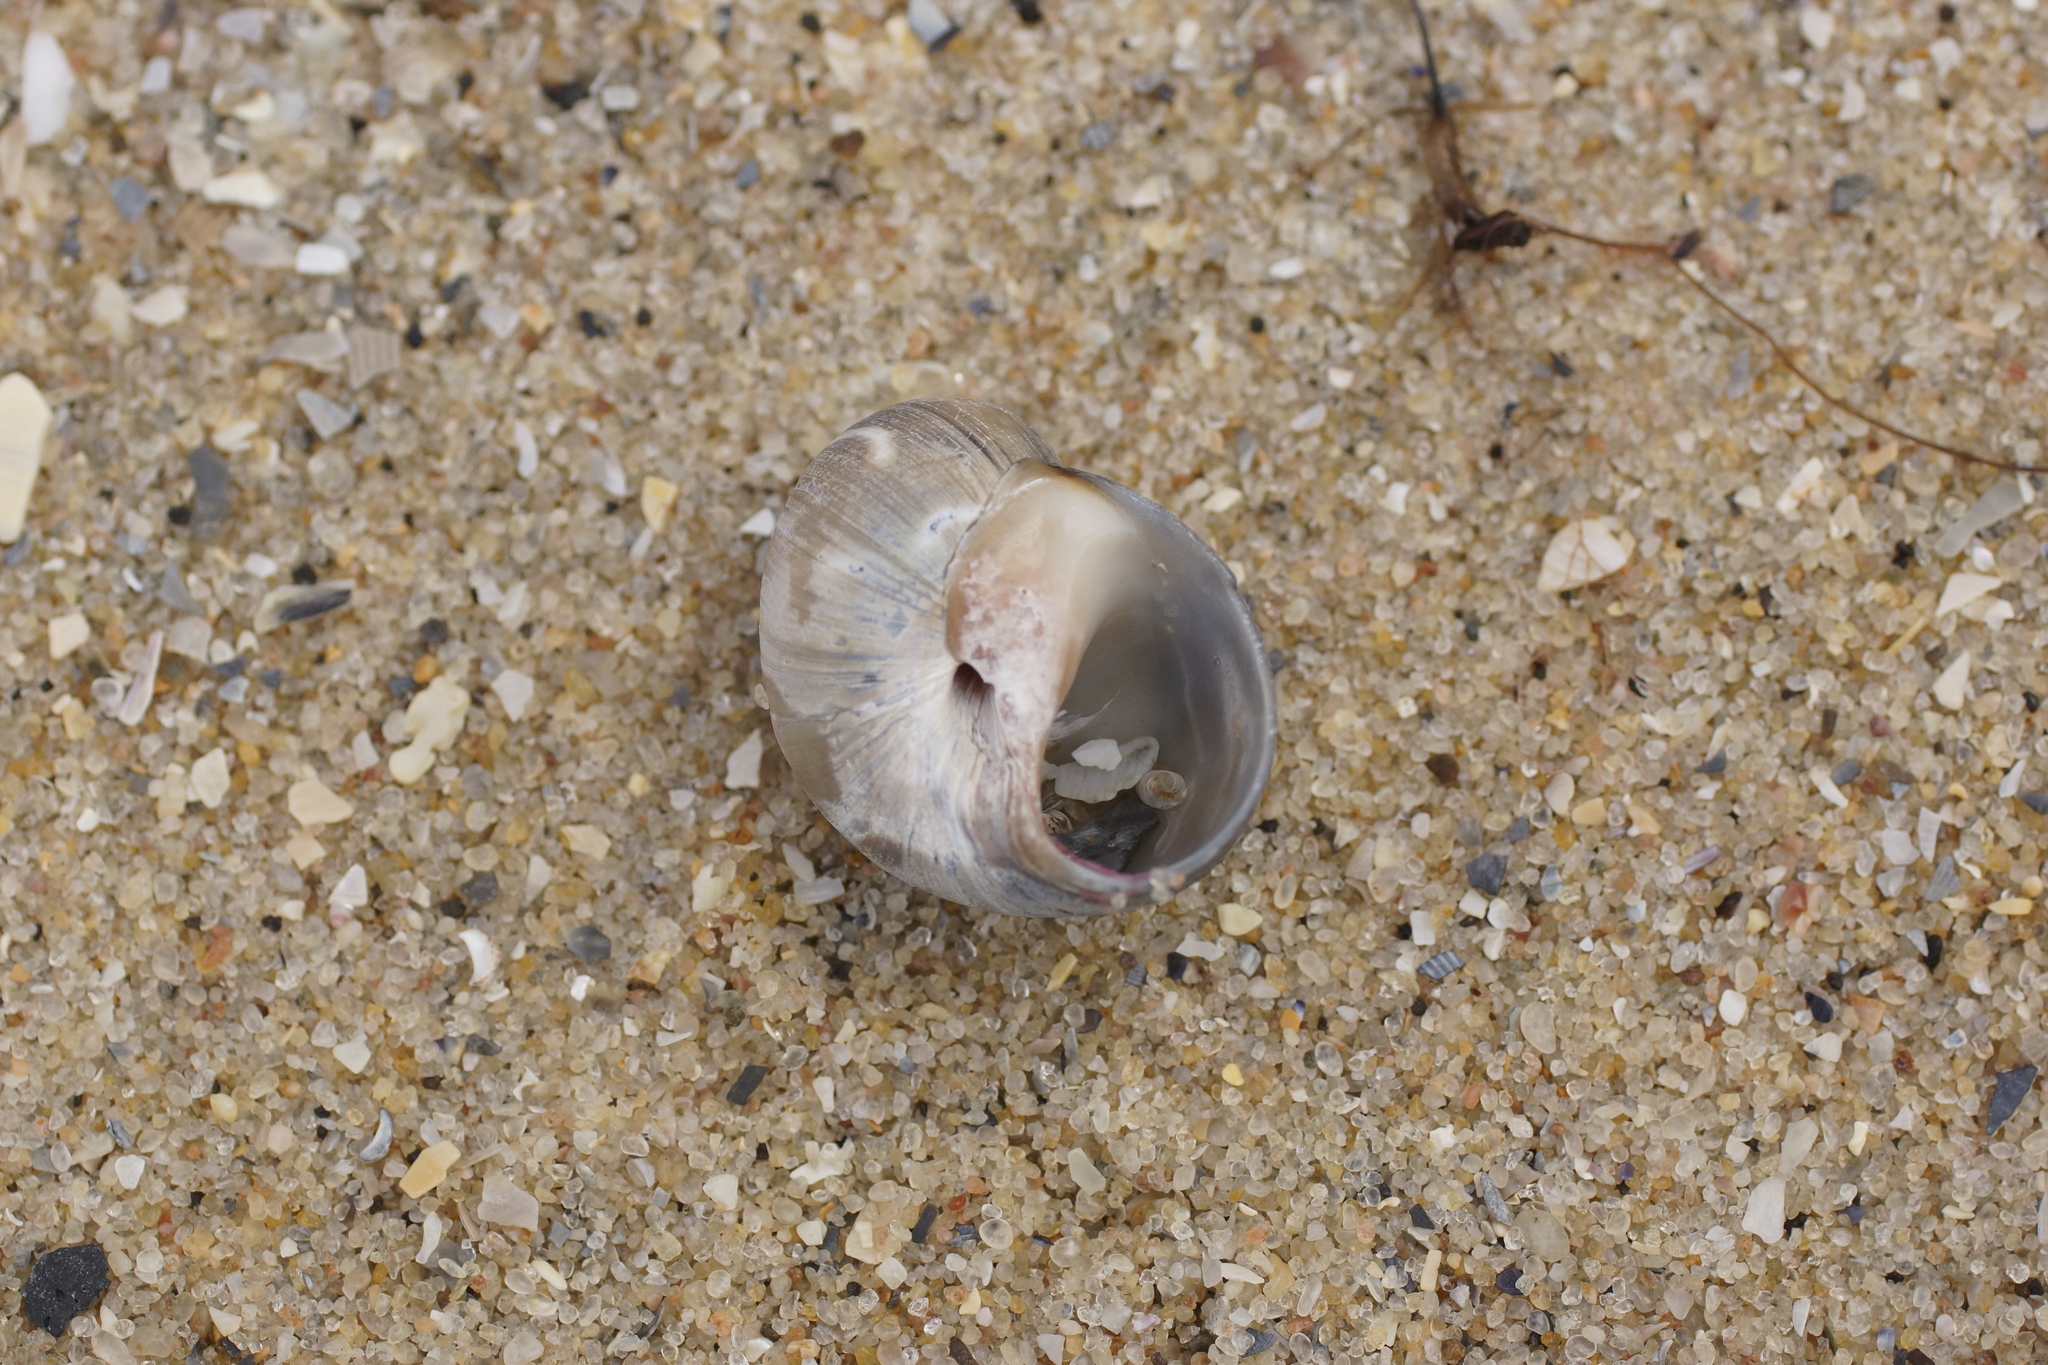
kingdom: Animalia
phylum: Mollusca
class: Gastropoda
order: Littorinimorpha
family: Naticidae
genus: Conuber
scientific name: Conuber conicum
